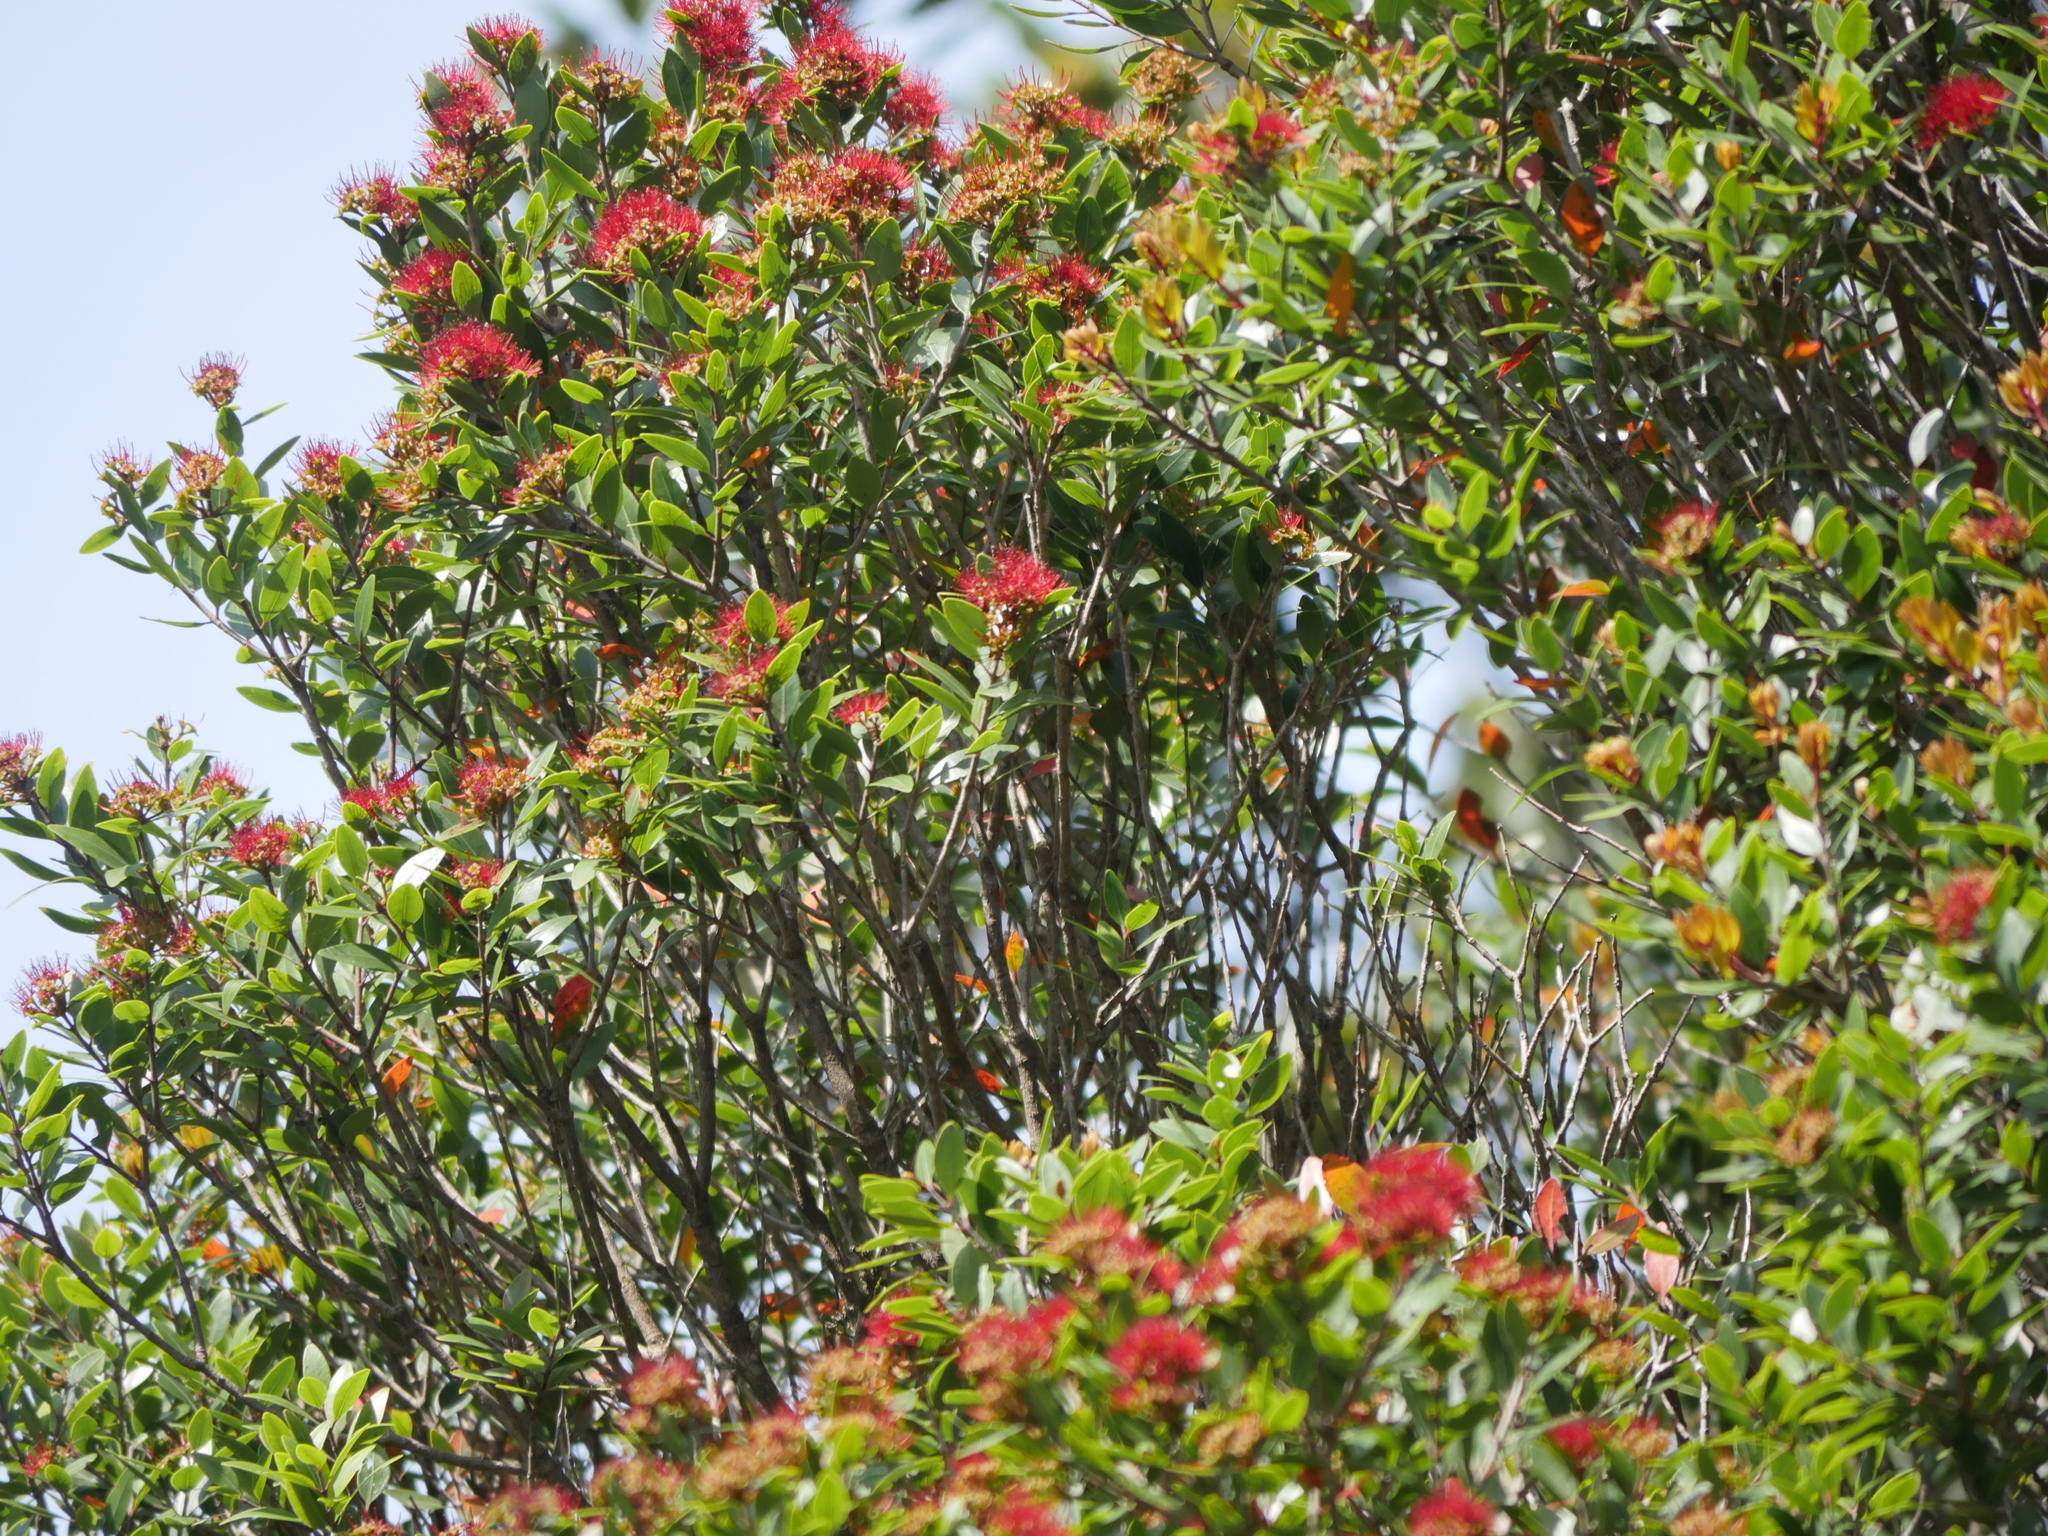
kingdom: Plantae
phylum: Tracheophyta
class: Magnoliopsida
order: Myrtales
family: Myrtaceae
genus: Metrosideros
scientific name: Metrosideros robusta
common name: Northern rata
